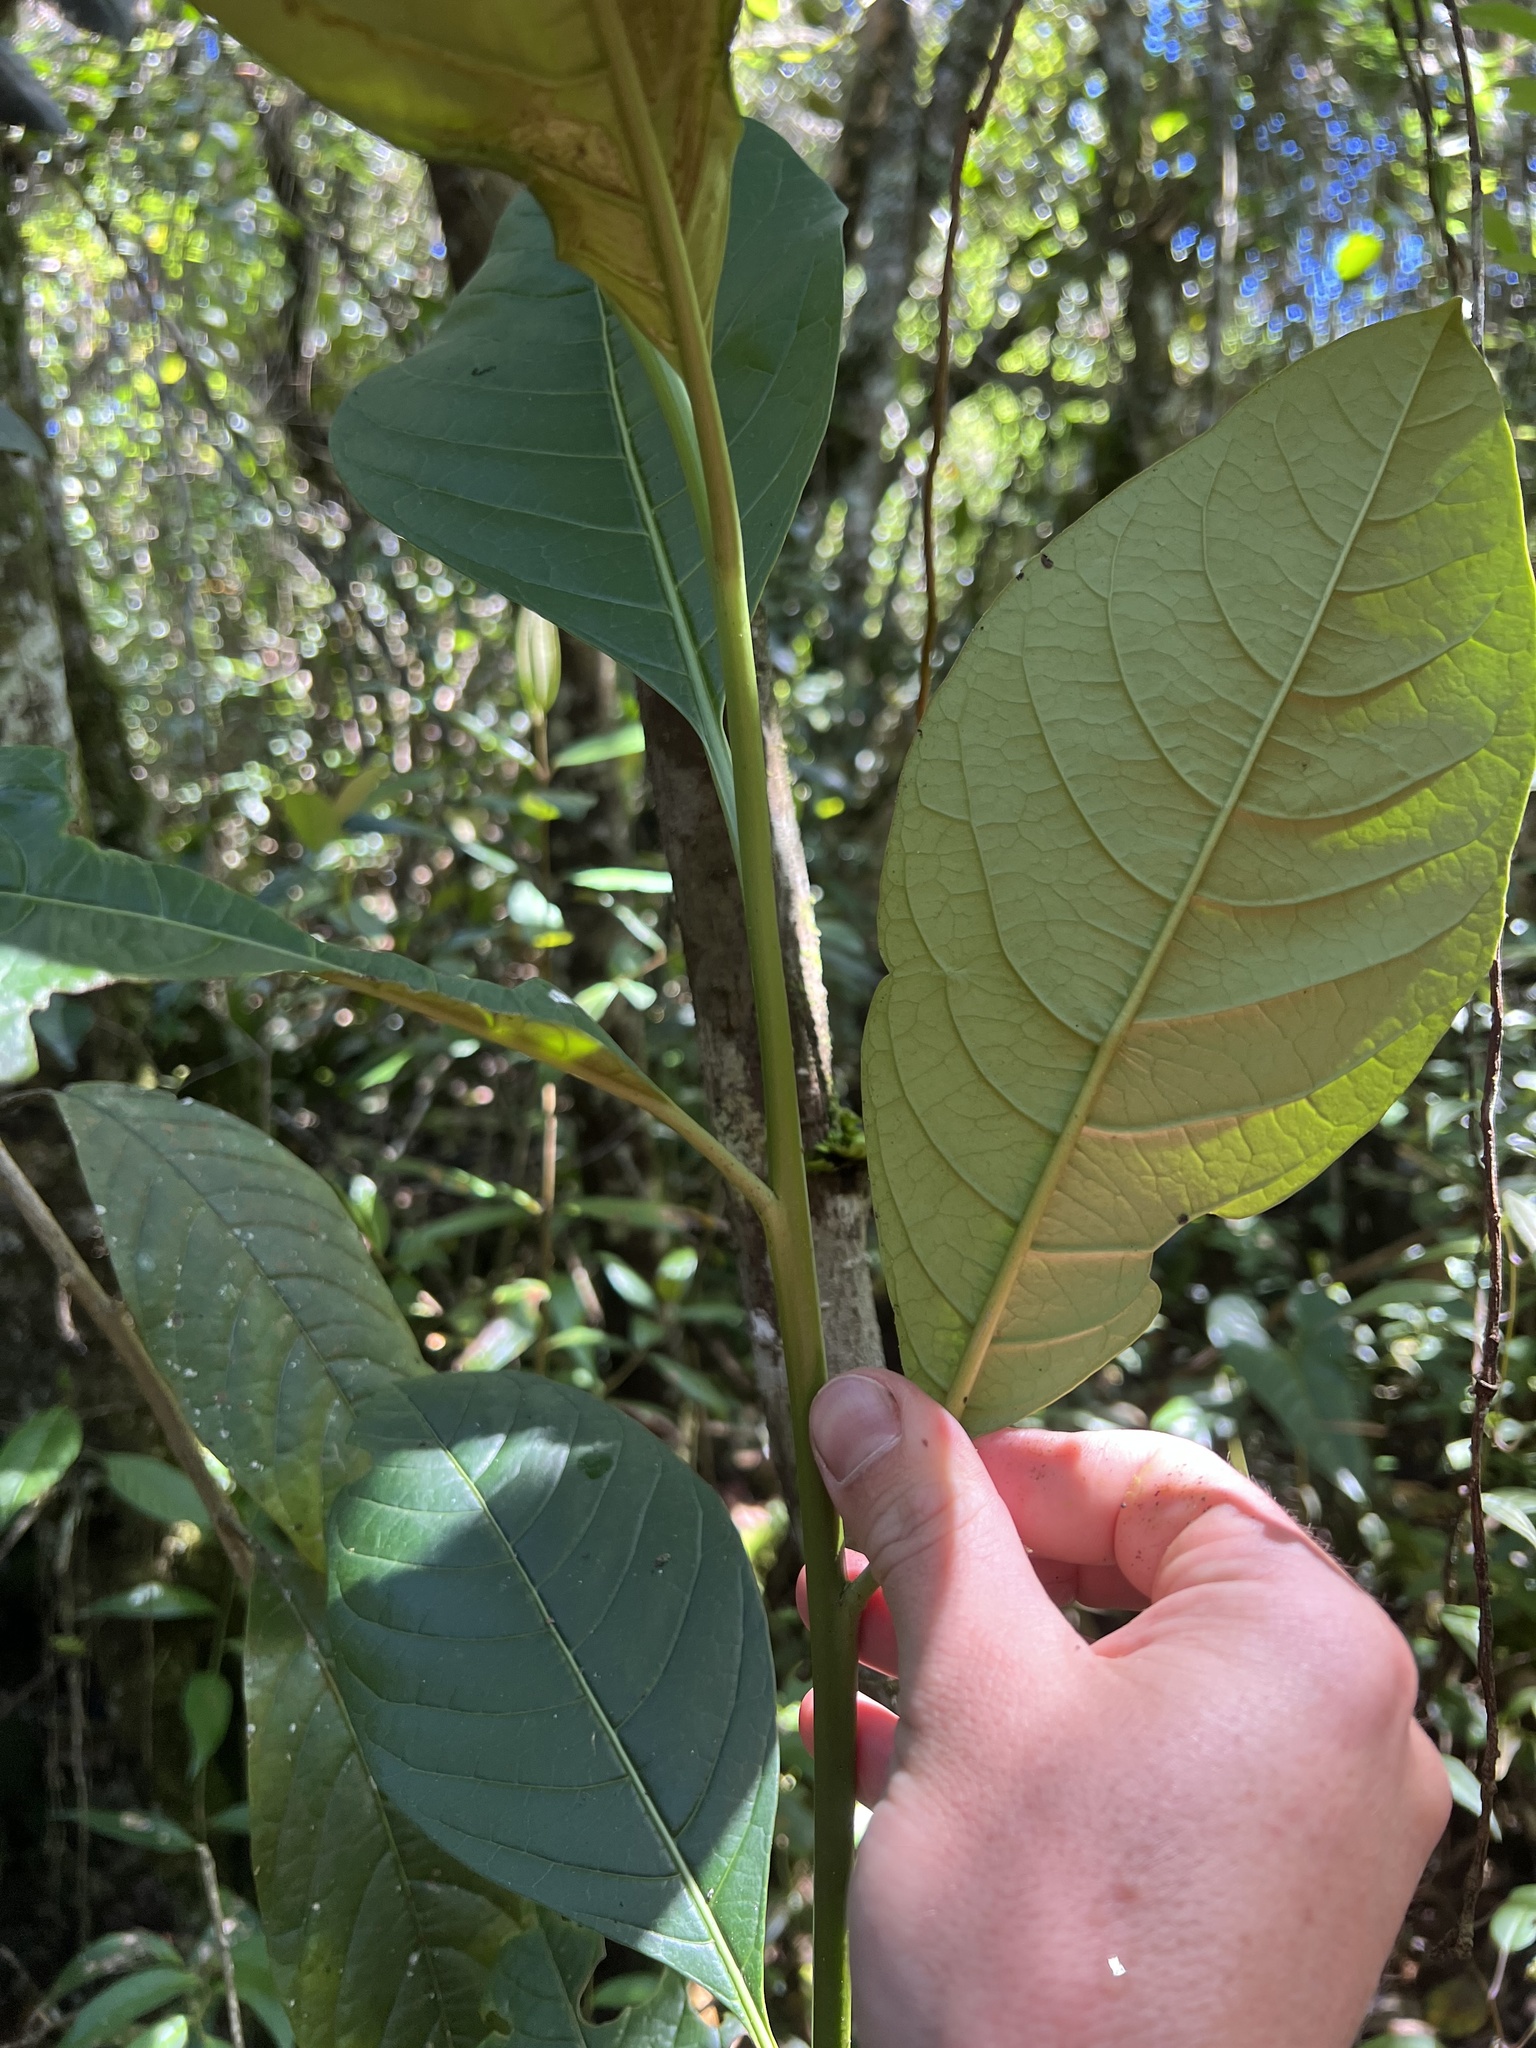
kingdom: Plantae
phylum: Tracheophyta
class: Magnoliopsida
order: Solanales
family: Solanaceae
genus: Solanum
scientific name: Solanum humboldtianum
